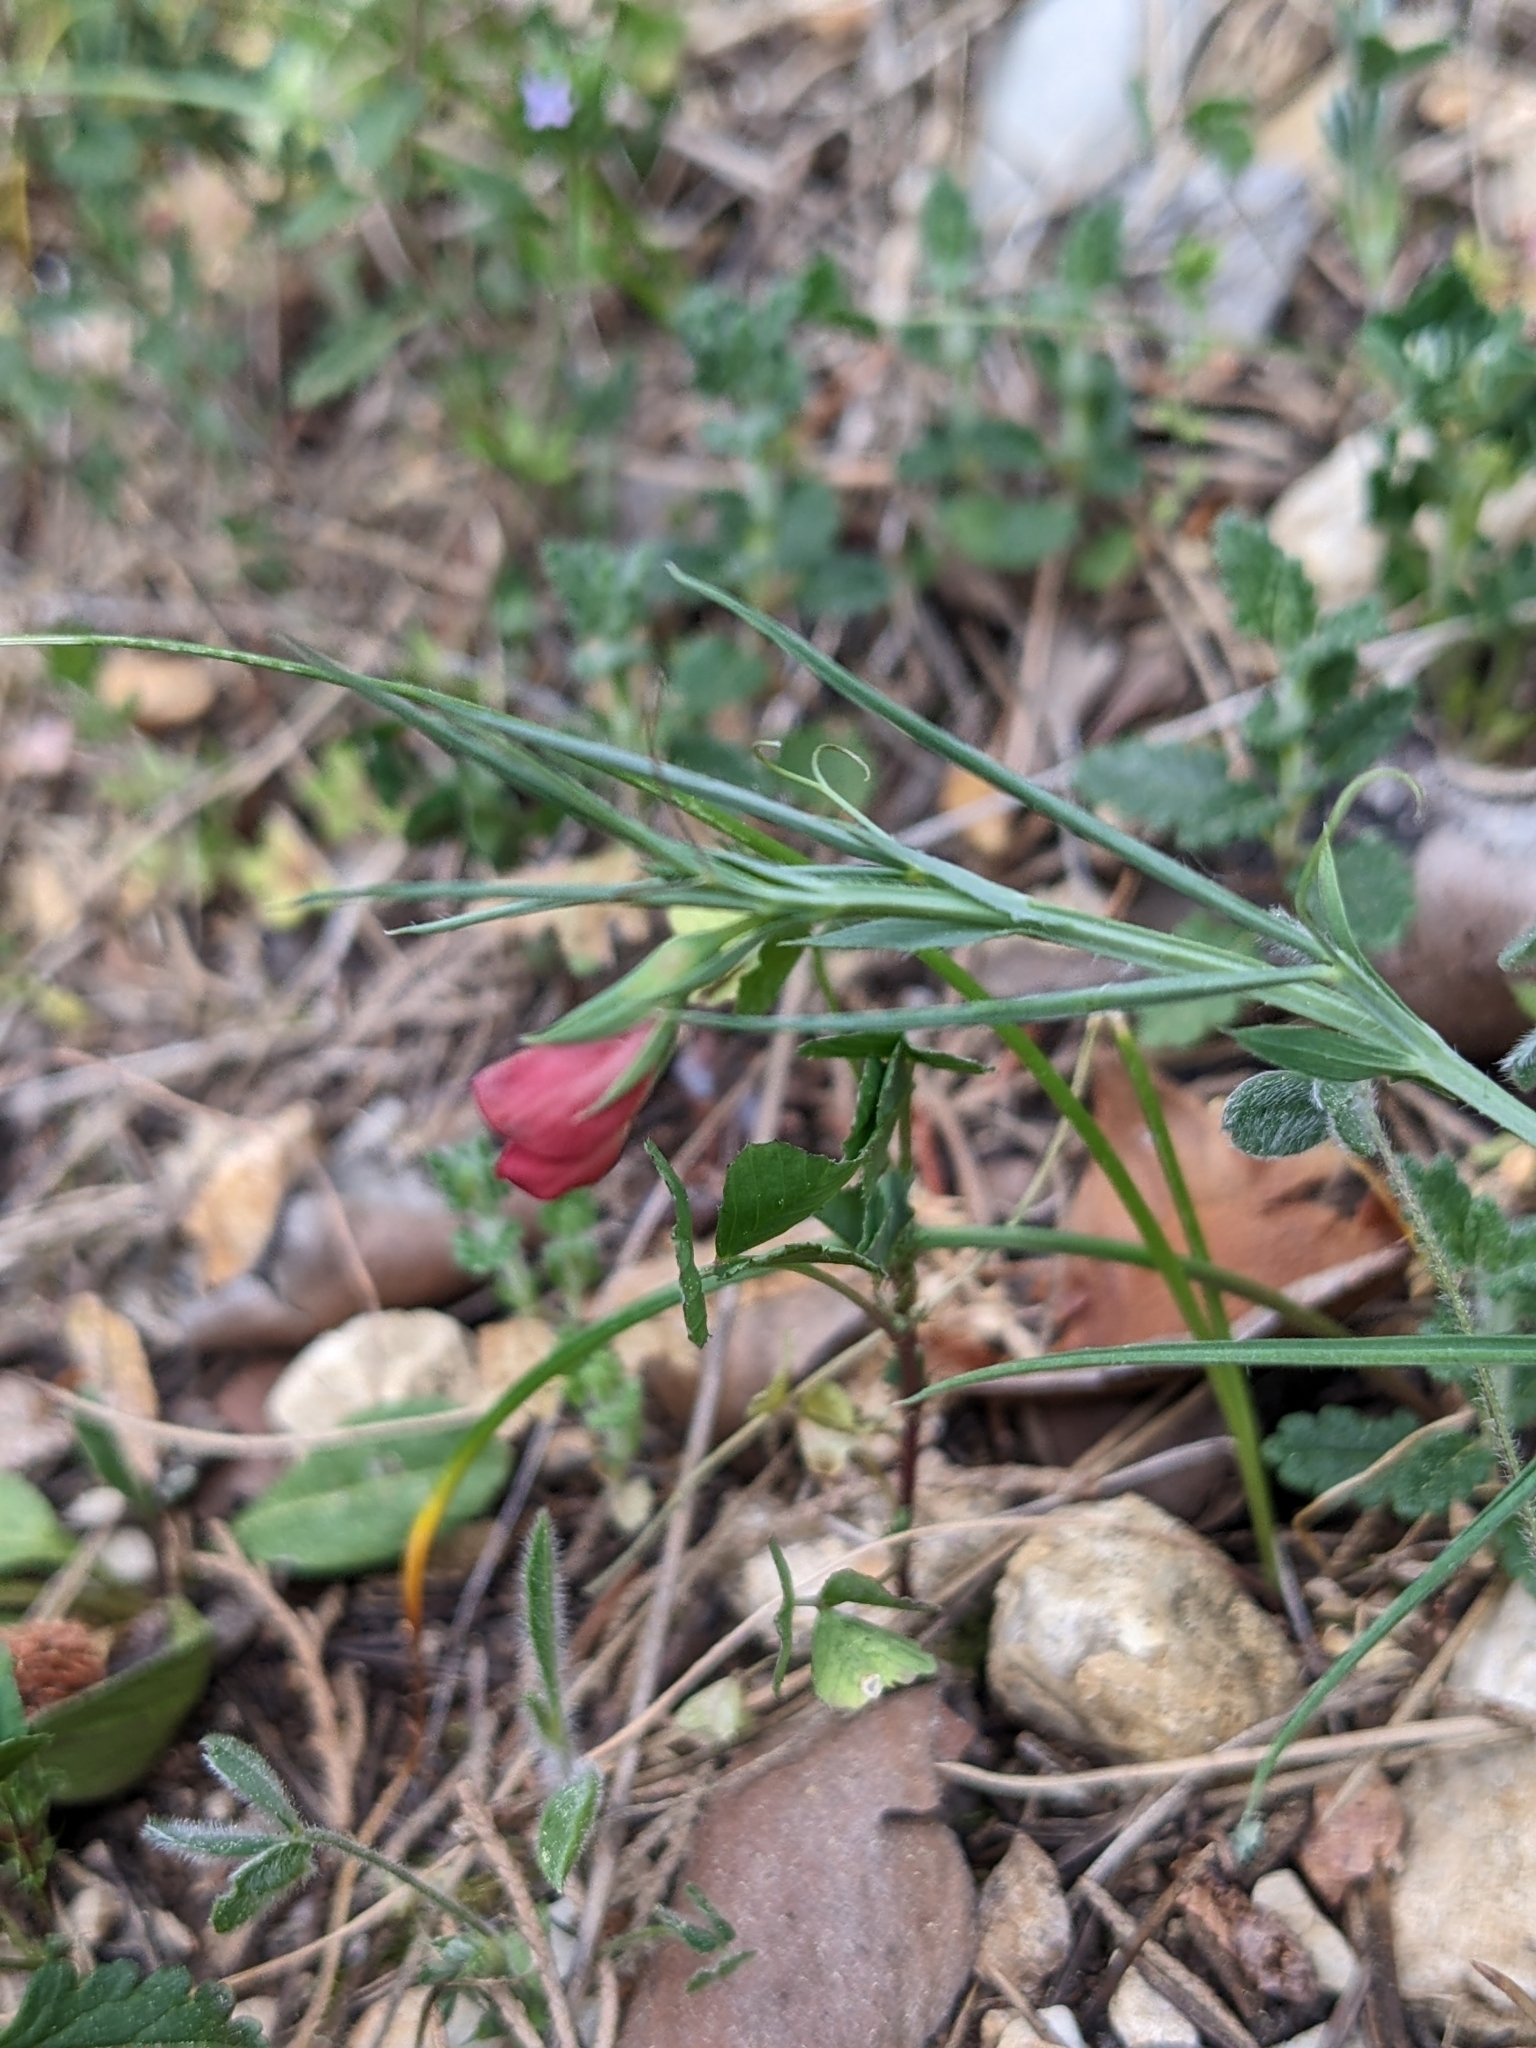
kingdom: Plantae
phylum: Tracheophyta
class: Magnoliopsida
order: Fabales
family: Fabaceae
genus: Lathyrus
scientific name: Lathyrus setifolius
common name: Brown vetchling
